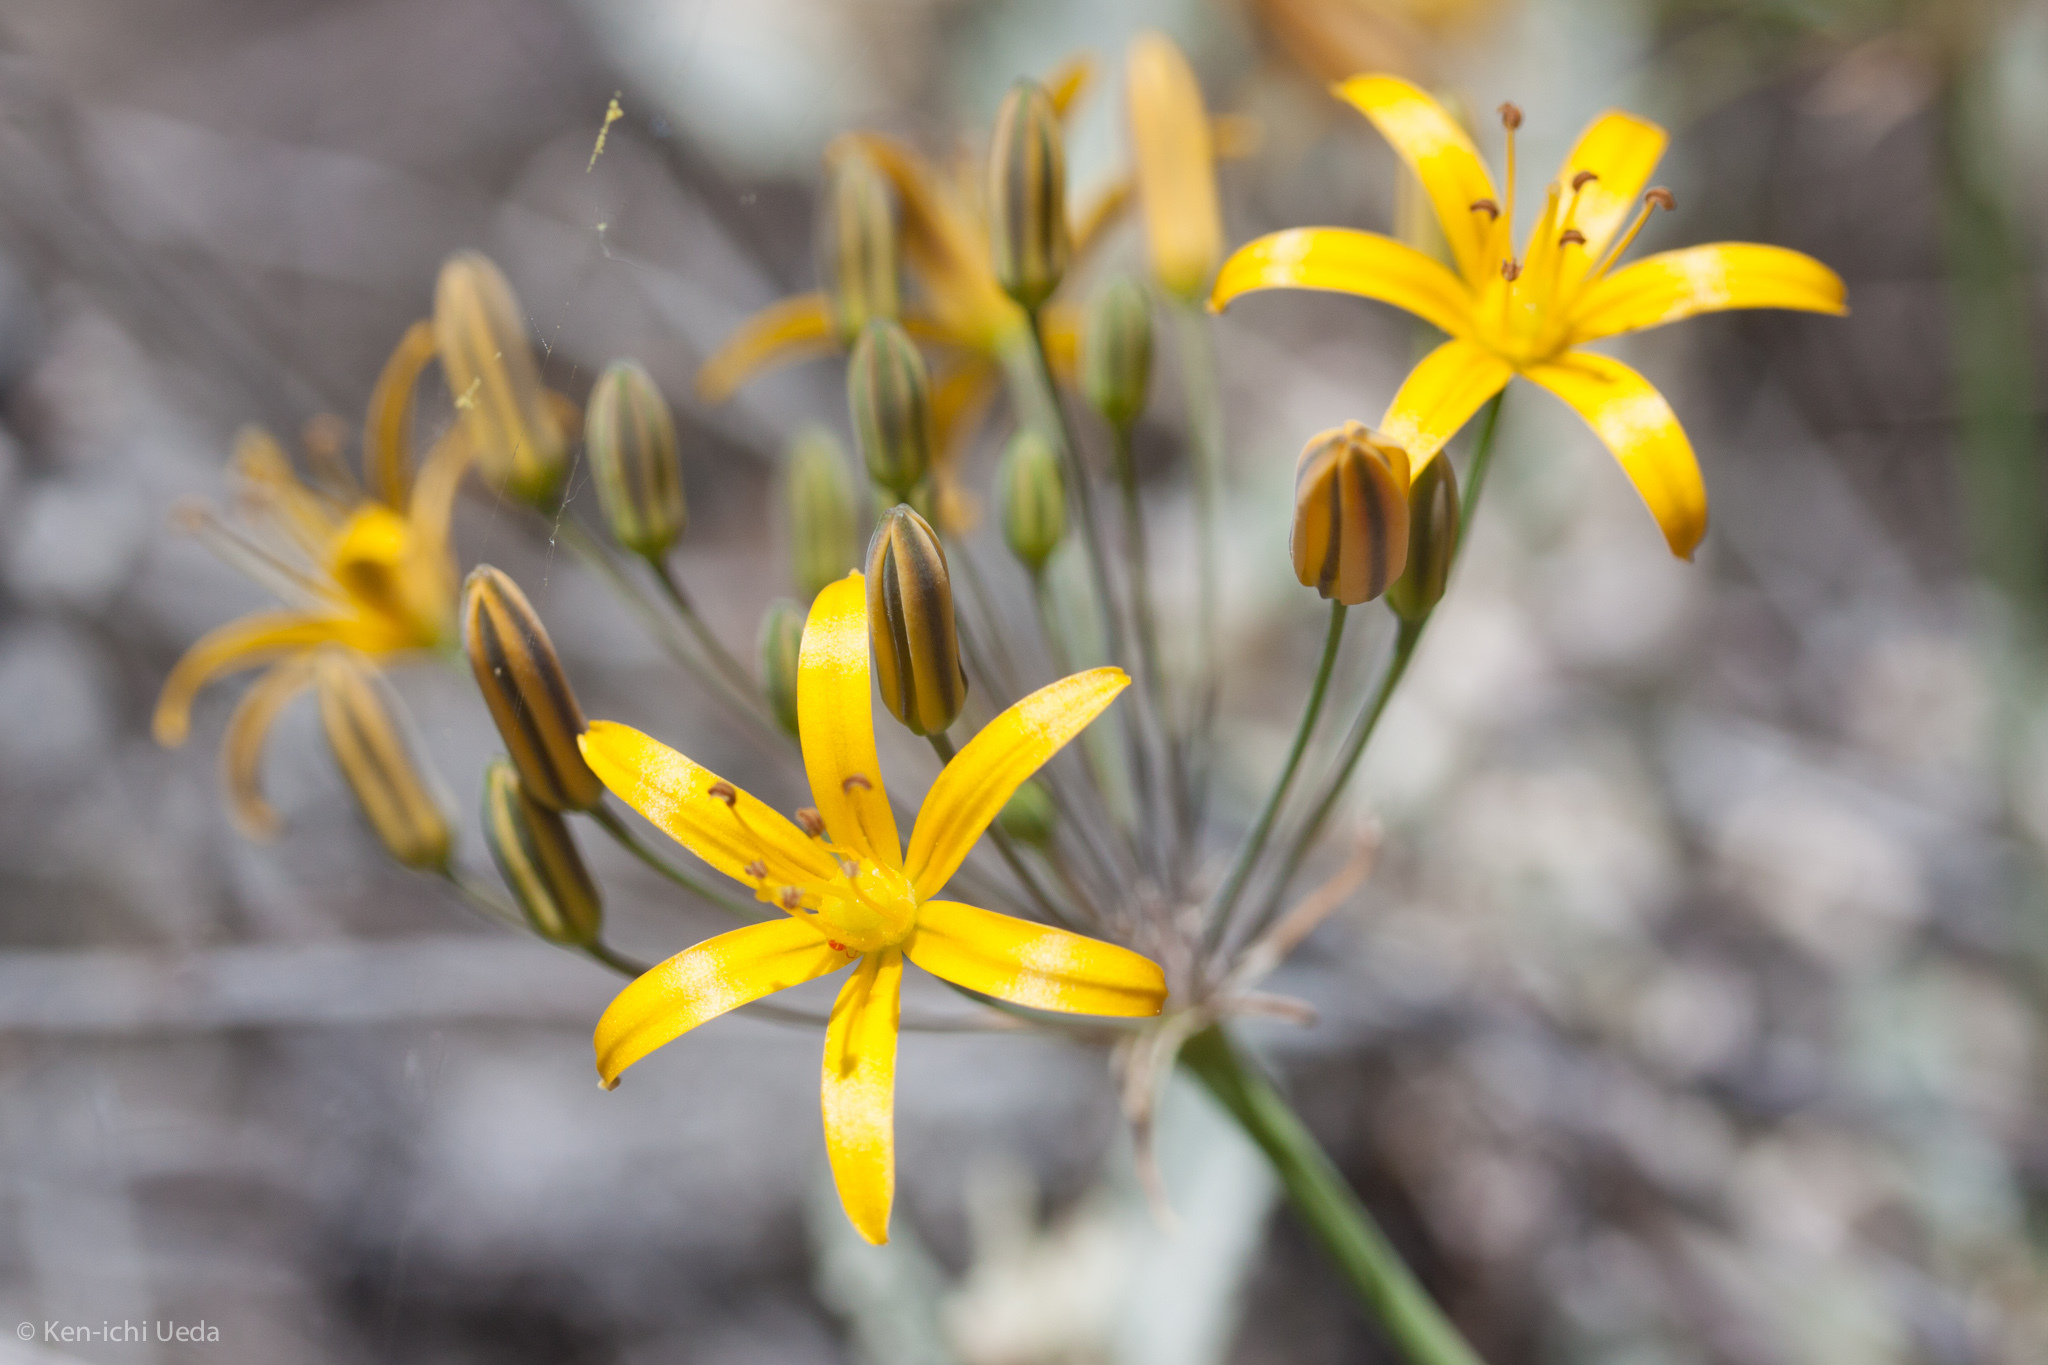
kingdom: Plantae
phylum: Tracheophyta
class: Liliopsida
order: Asparagales
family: Asparagaceae
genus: Bloomeria
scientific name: Bloomeria crocea
